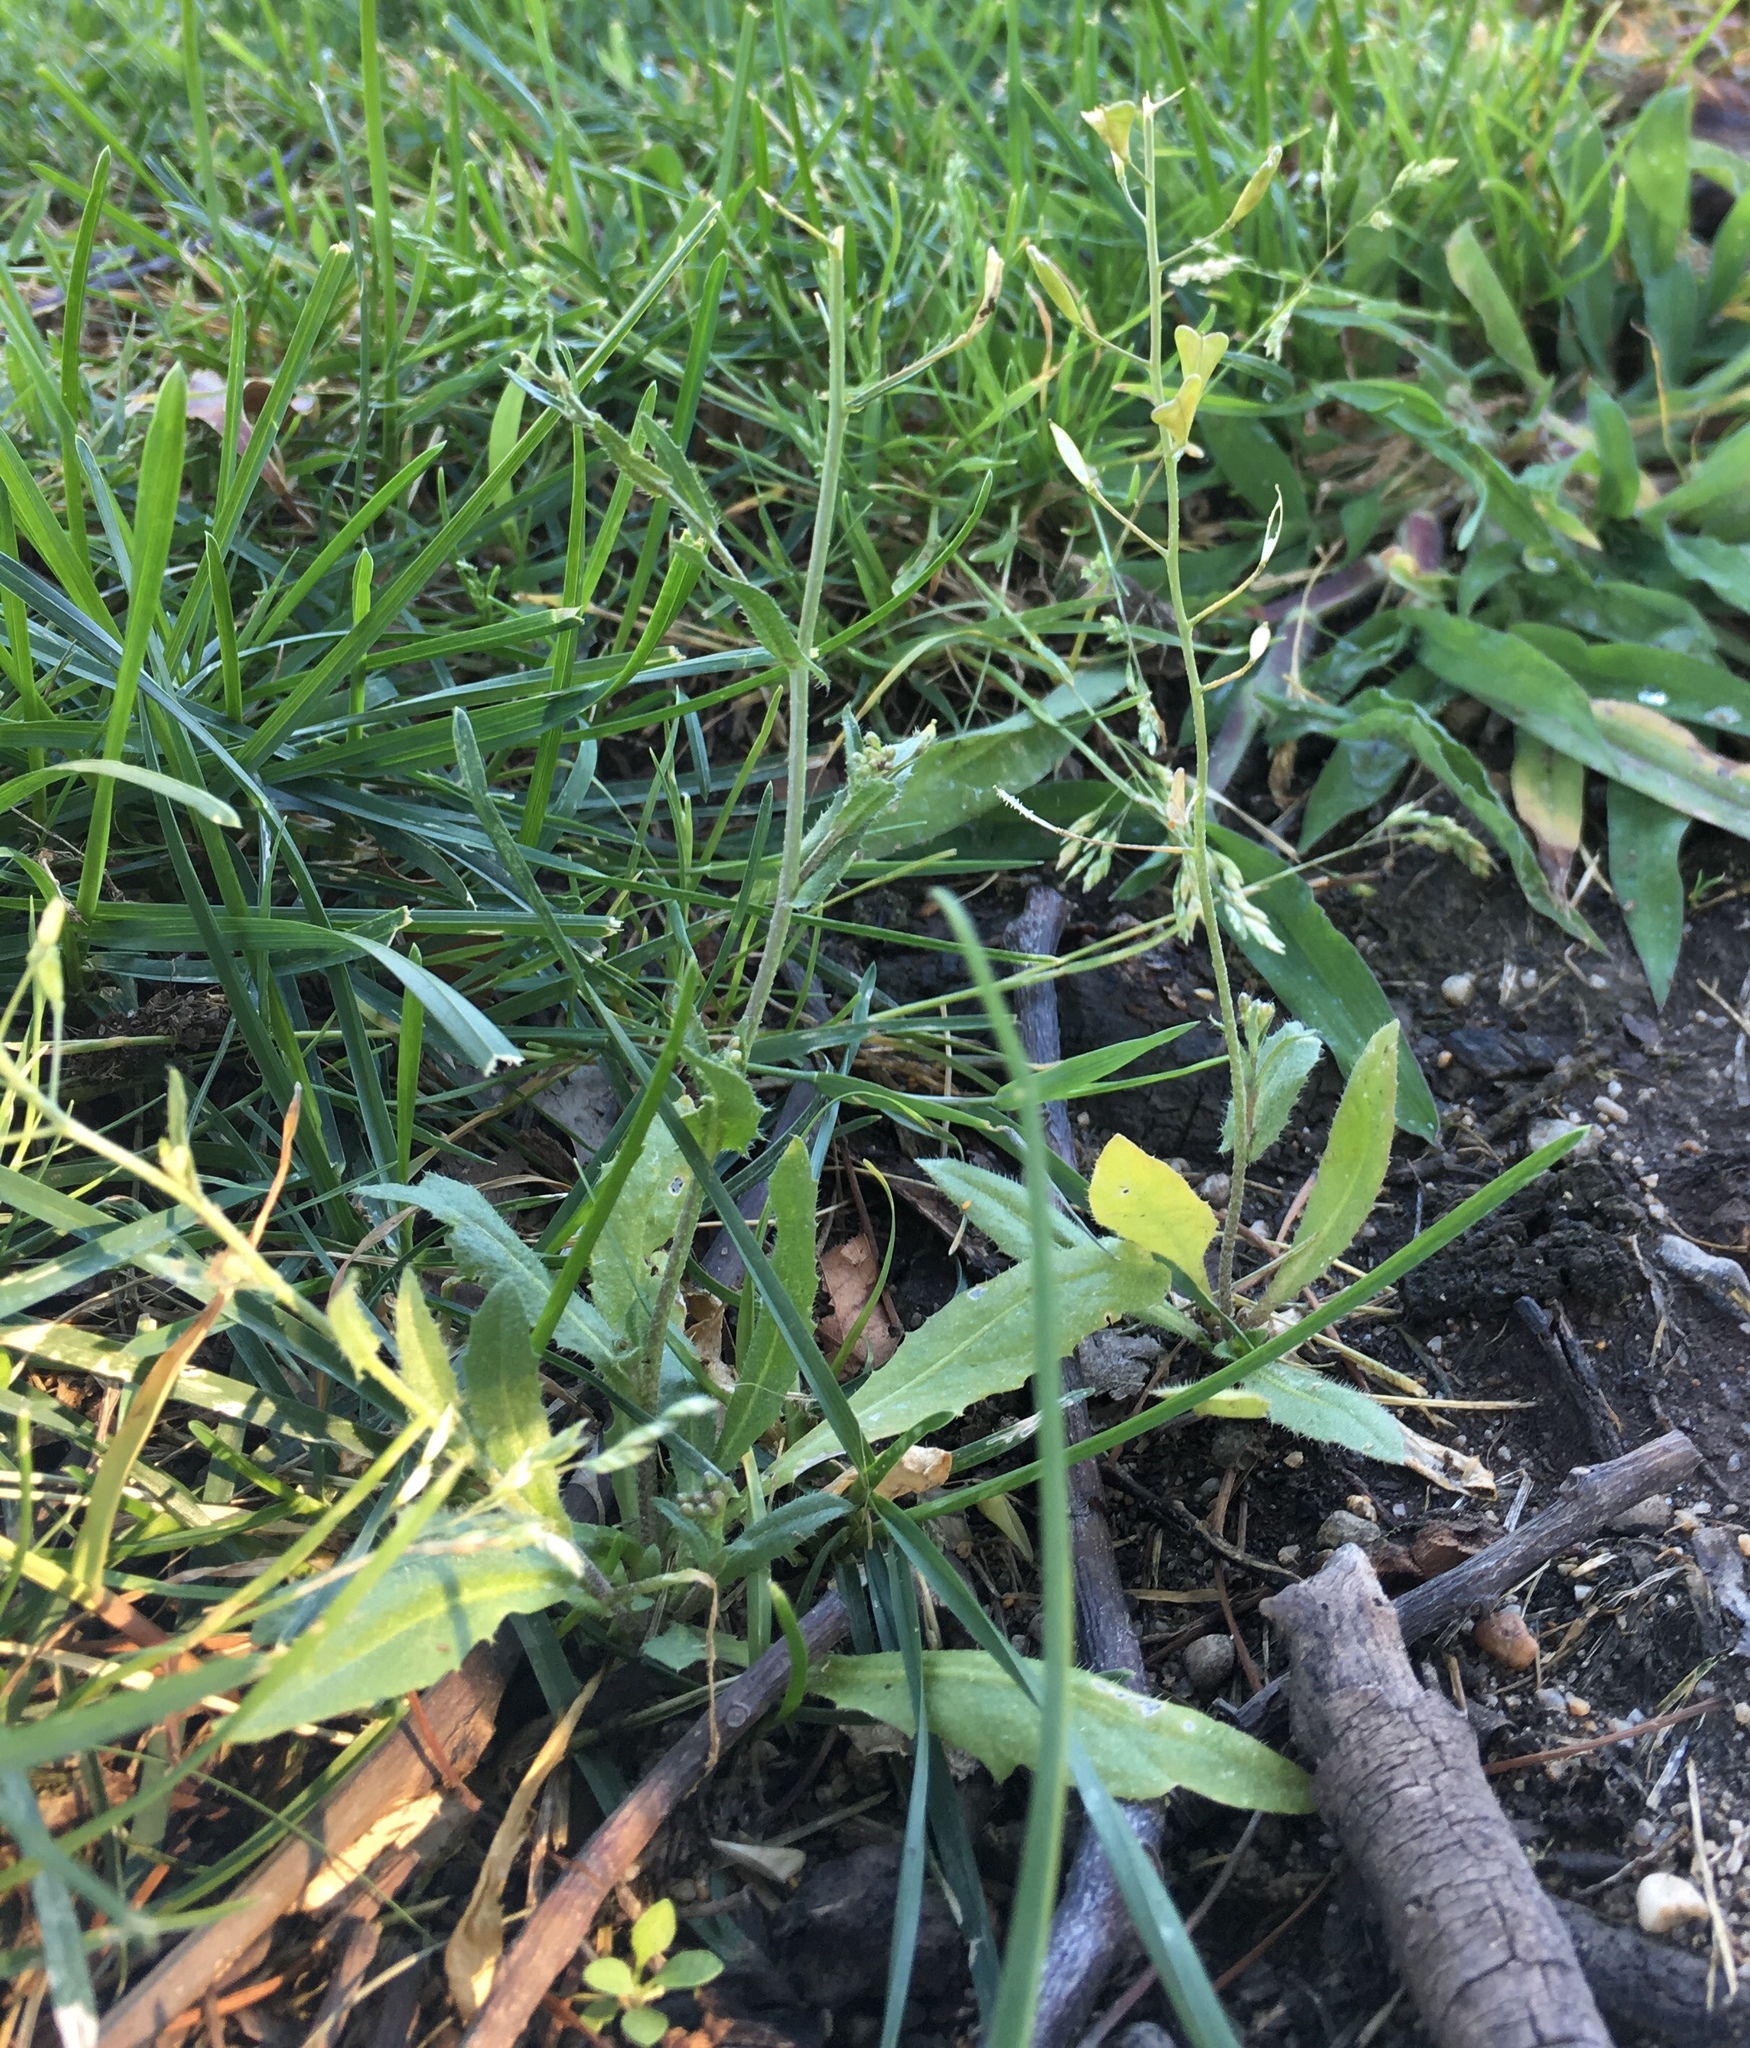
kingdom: Plantae
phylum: Tracheophyta
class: Magnoliopsida
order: Brassicales
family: Brassicaceae
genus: Capsella
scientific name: Capsella bursa-pastoris
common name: Shepherd's purse
